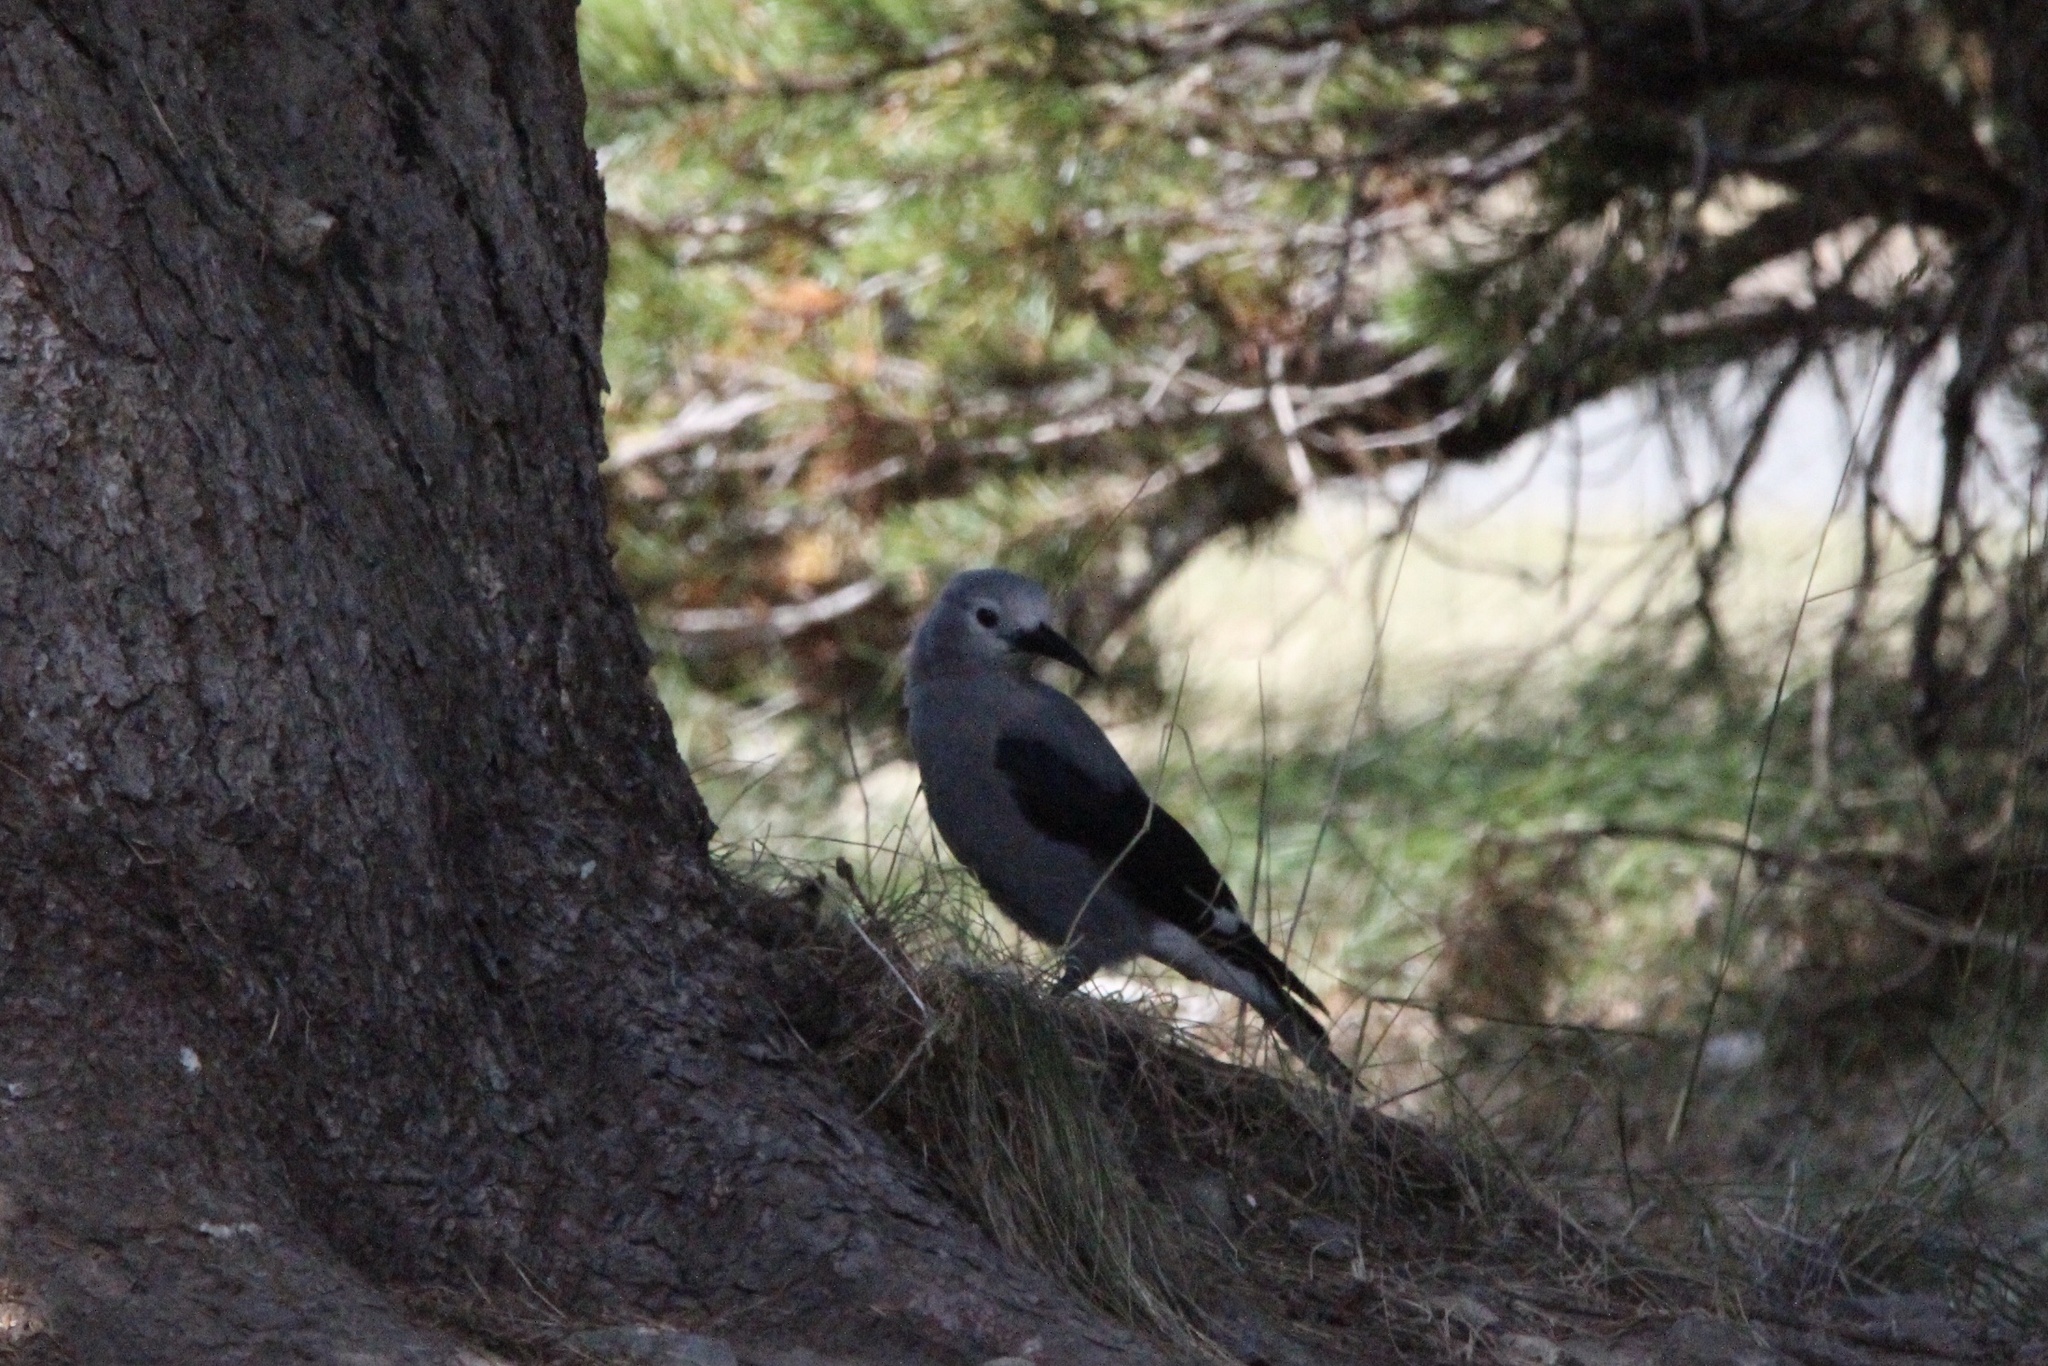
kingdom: Animalia
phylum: Chordata
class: Aves
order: Passeriformes
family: Corvidae
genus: Nucifraga
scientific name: Nucifraga columbiana
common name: Clark's nutcracker
